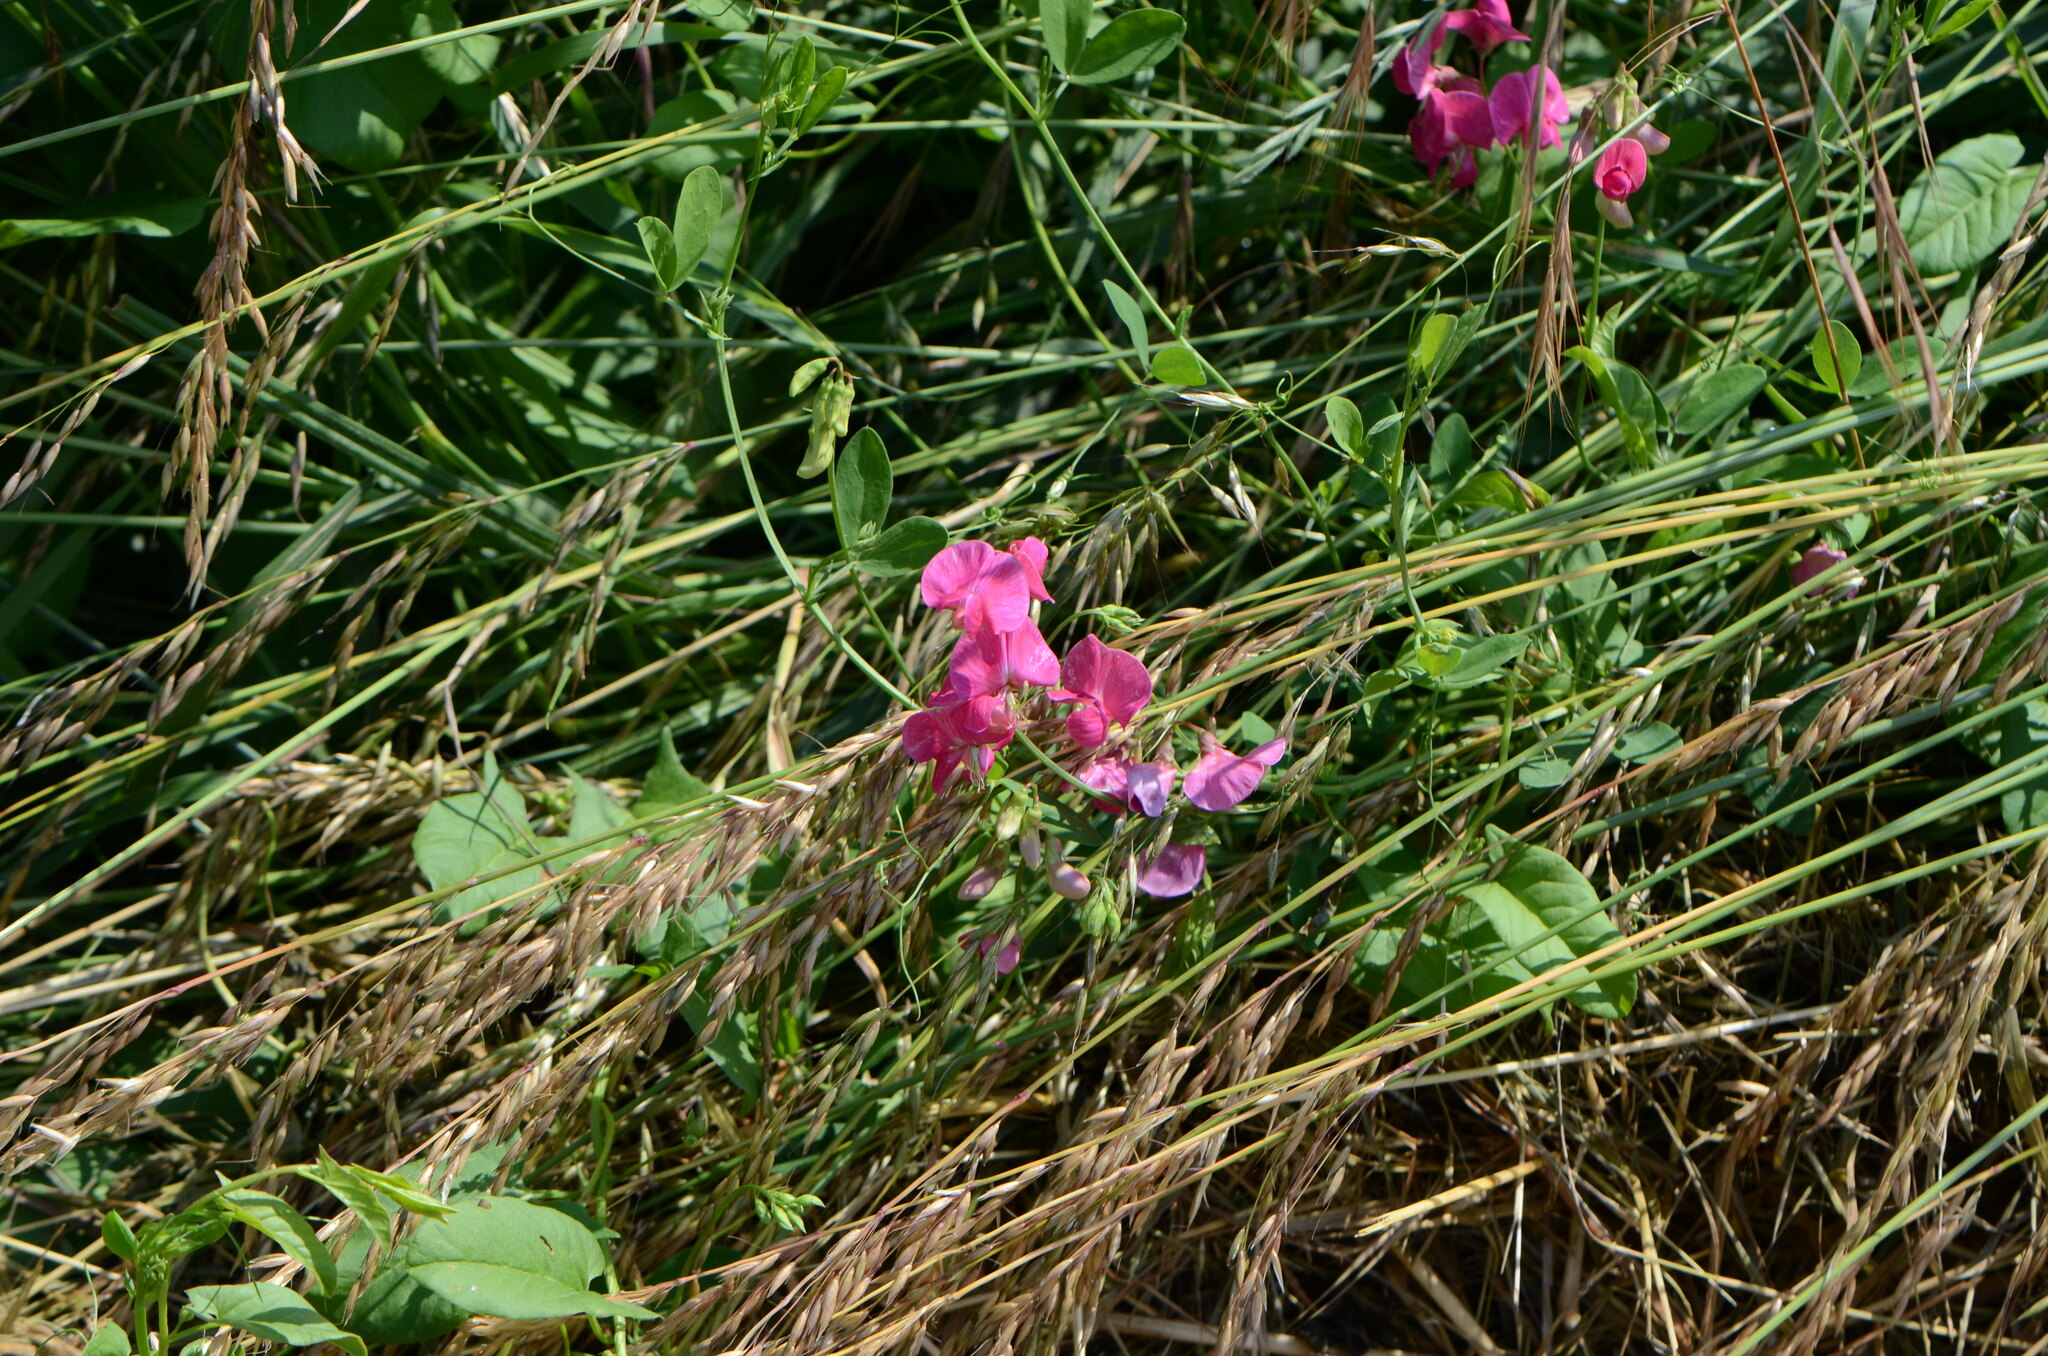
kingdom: Plantae
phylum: Tracheophyta
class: Magnoliopsida
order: Fabales
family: Fabaceae
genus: Lathyrus
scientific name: Lathyrus tuberosus
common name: Tuberous pea
